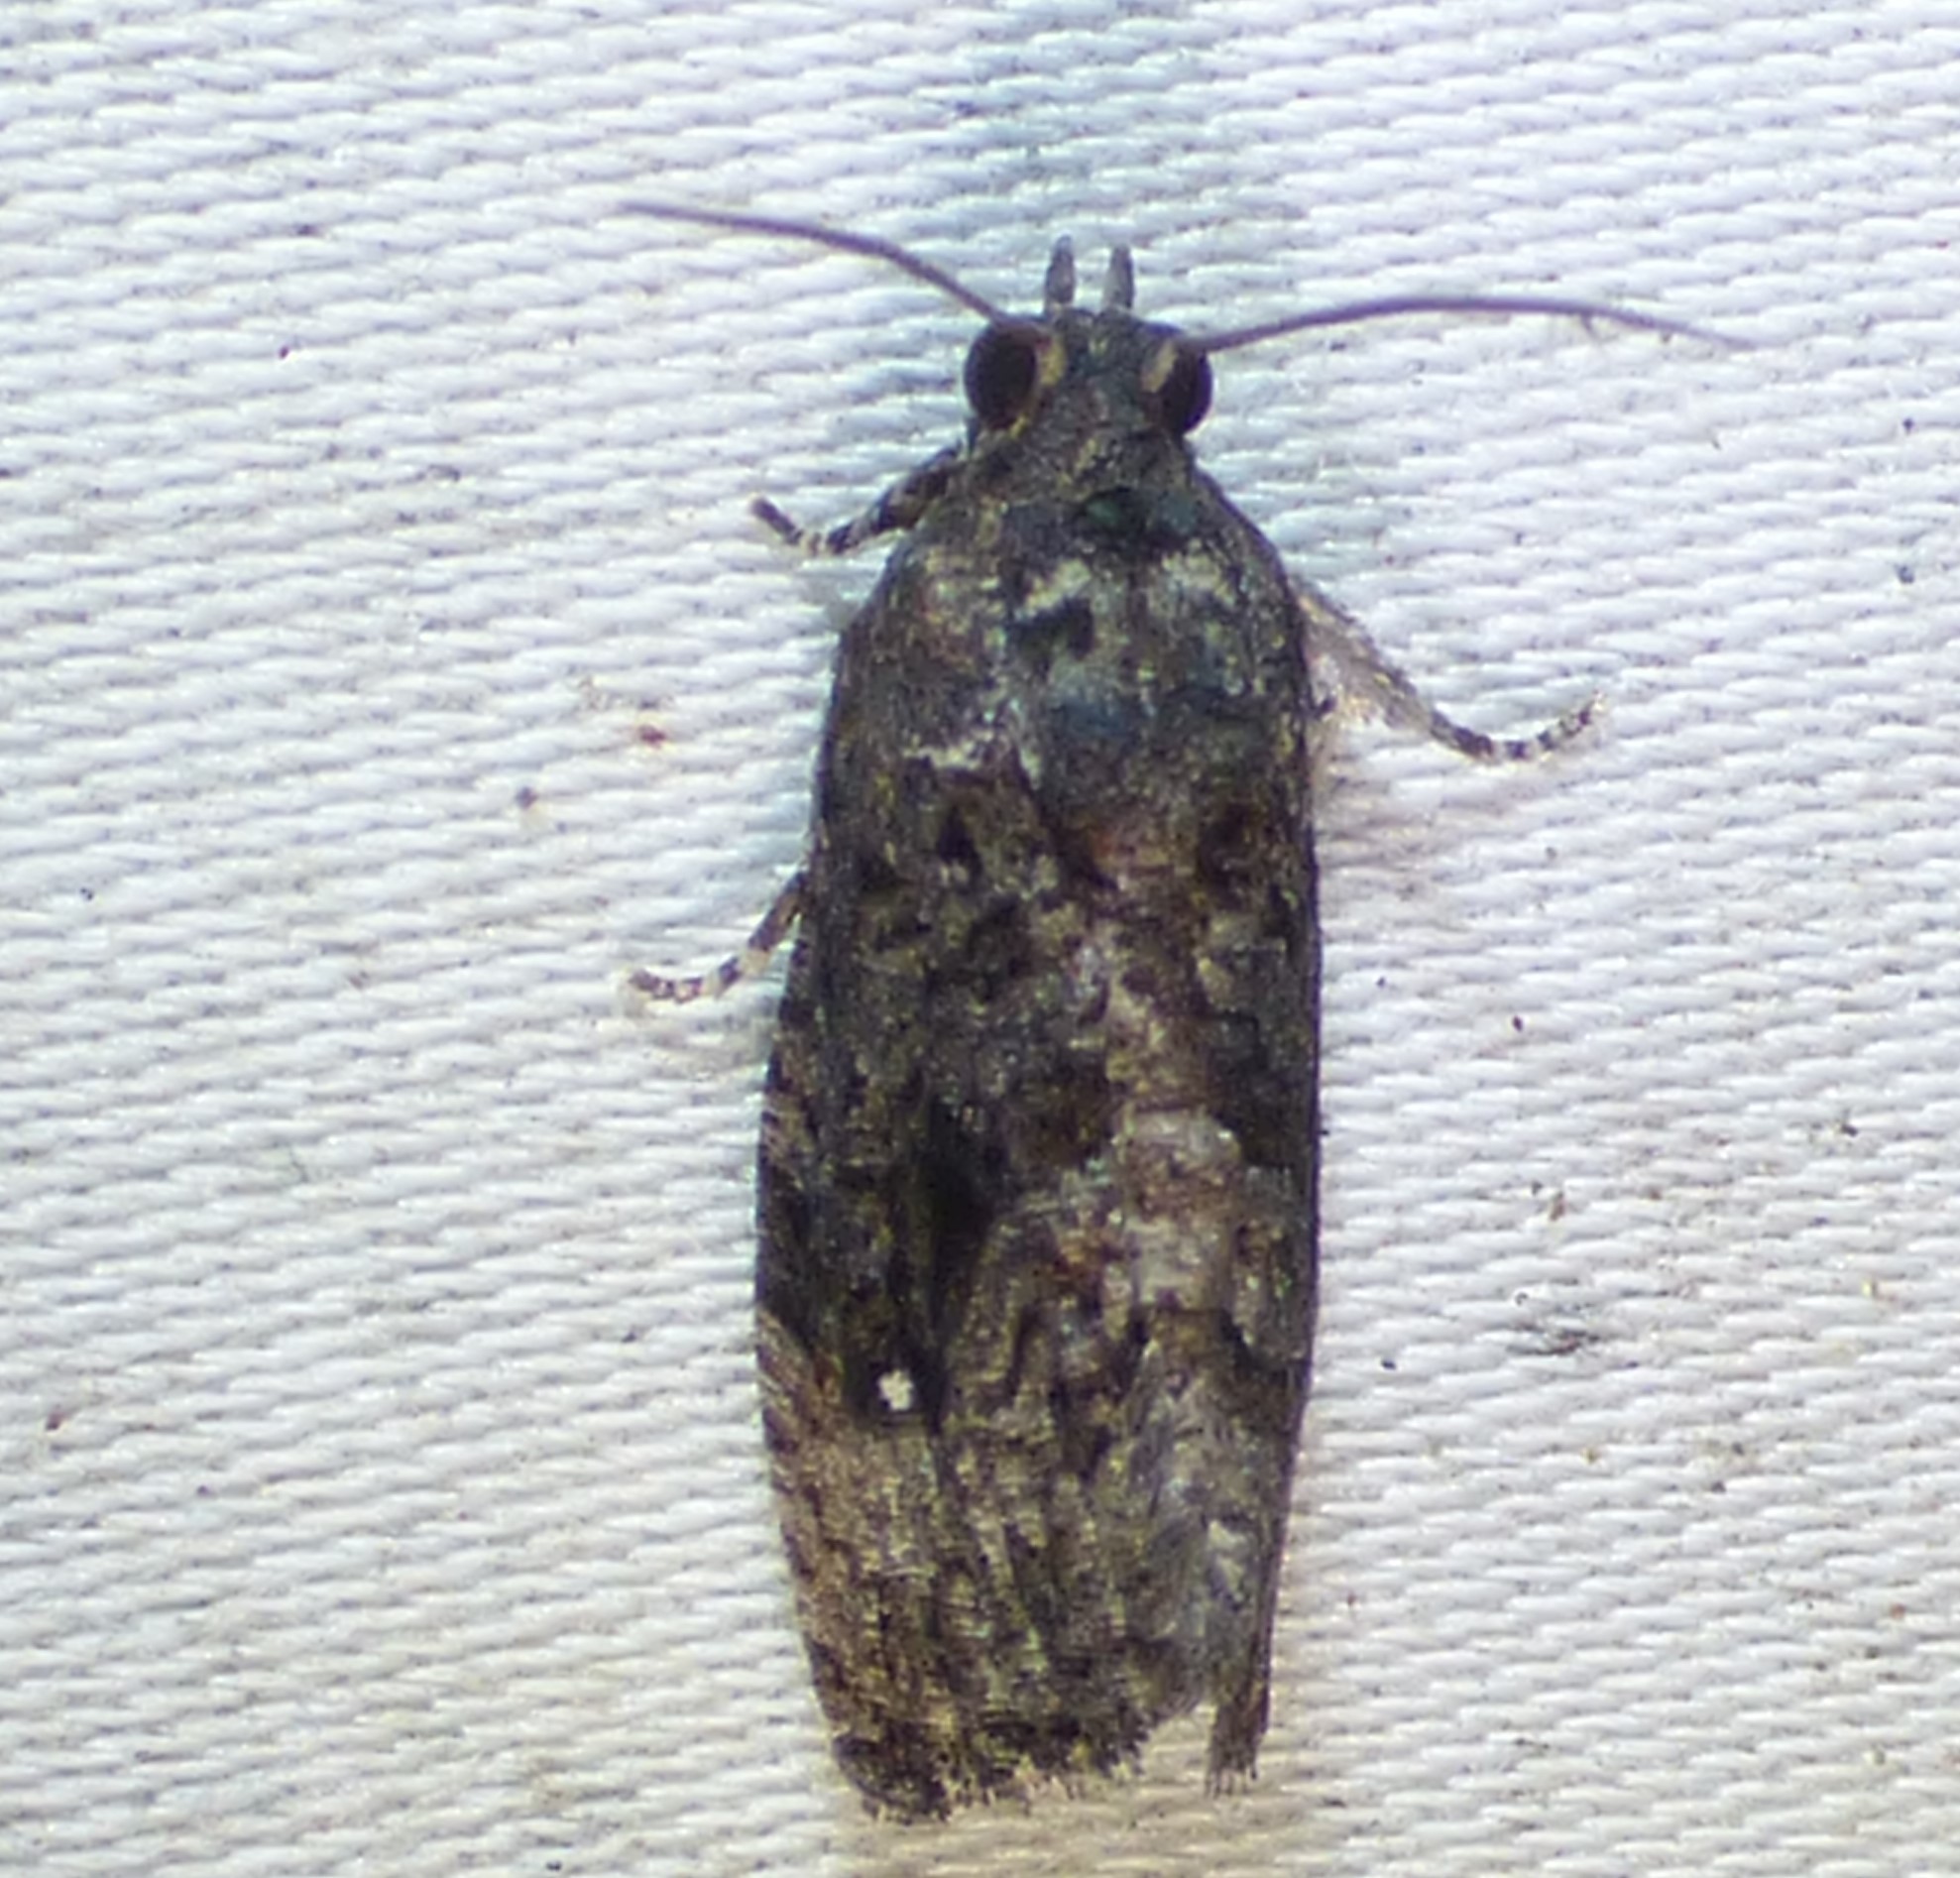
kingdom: Animalia
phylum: Arthropoda
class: Insecta
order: Lepidoptera
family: Tortricidae
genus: Gymnandrosoma
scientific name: Gymnandrosoma punctidiscanum
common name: Dotted ecdytolopha moth
